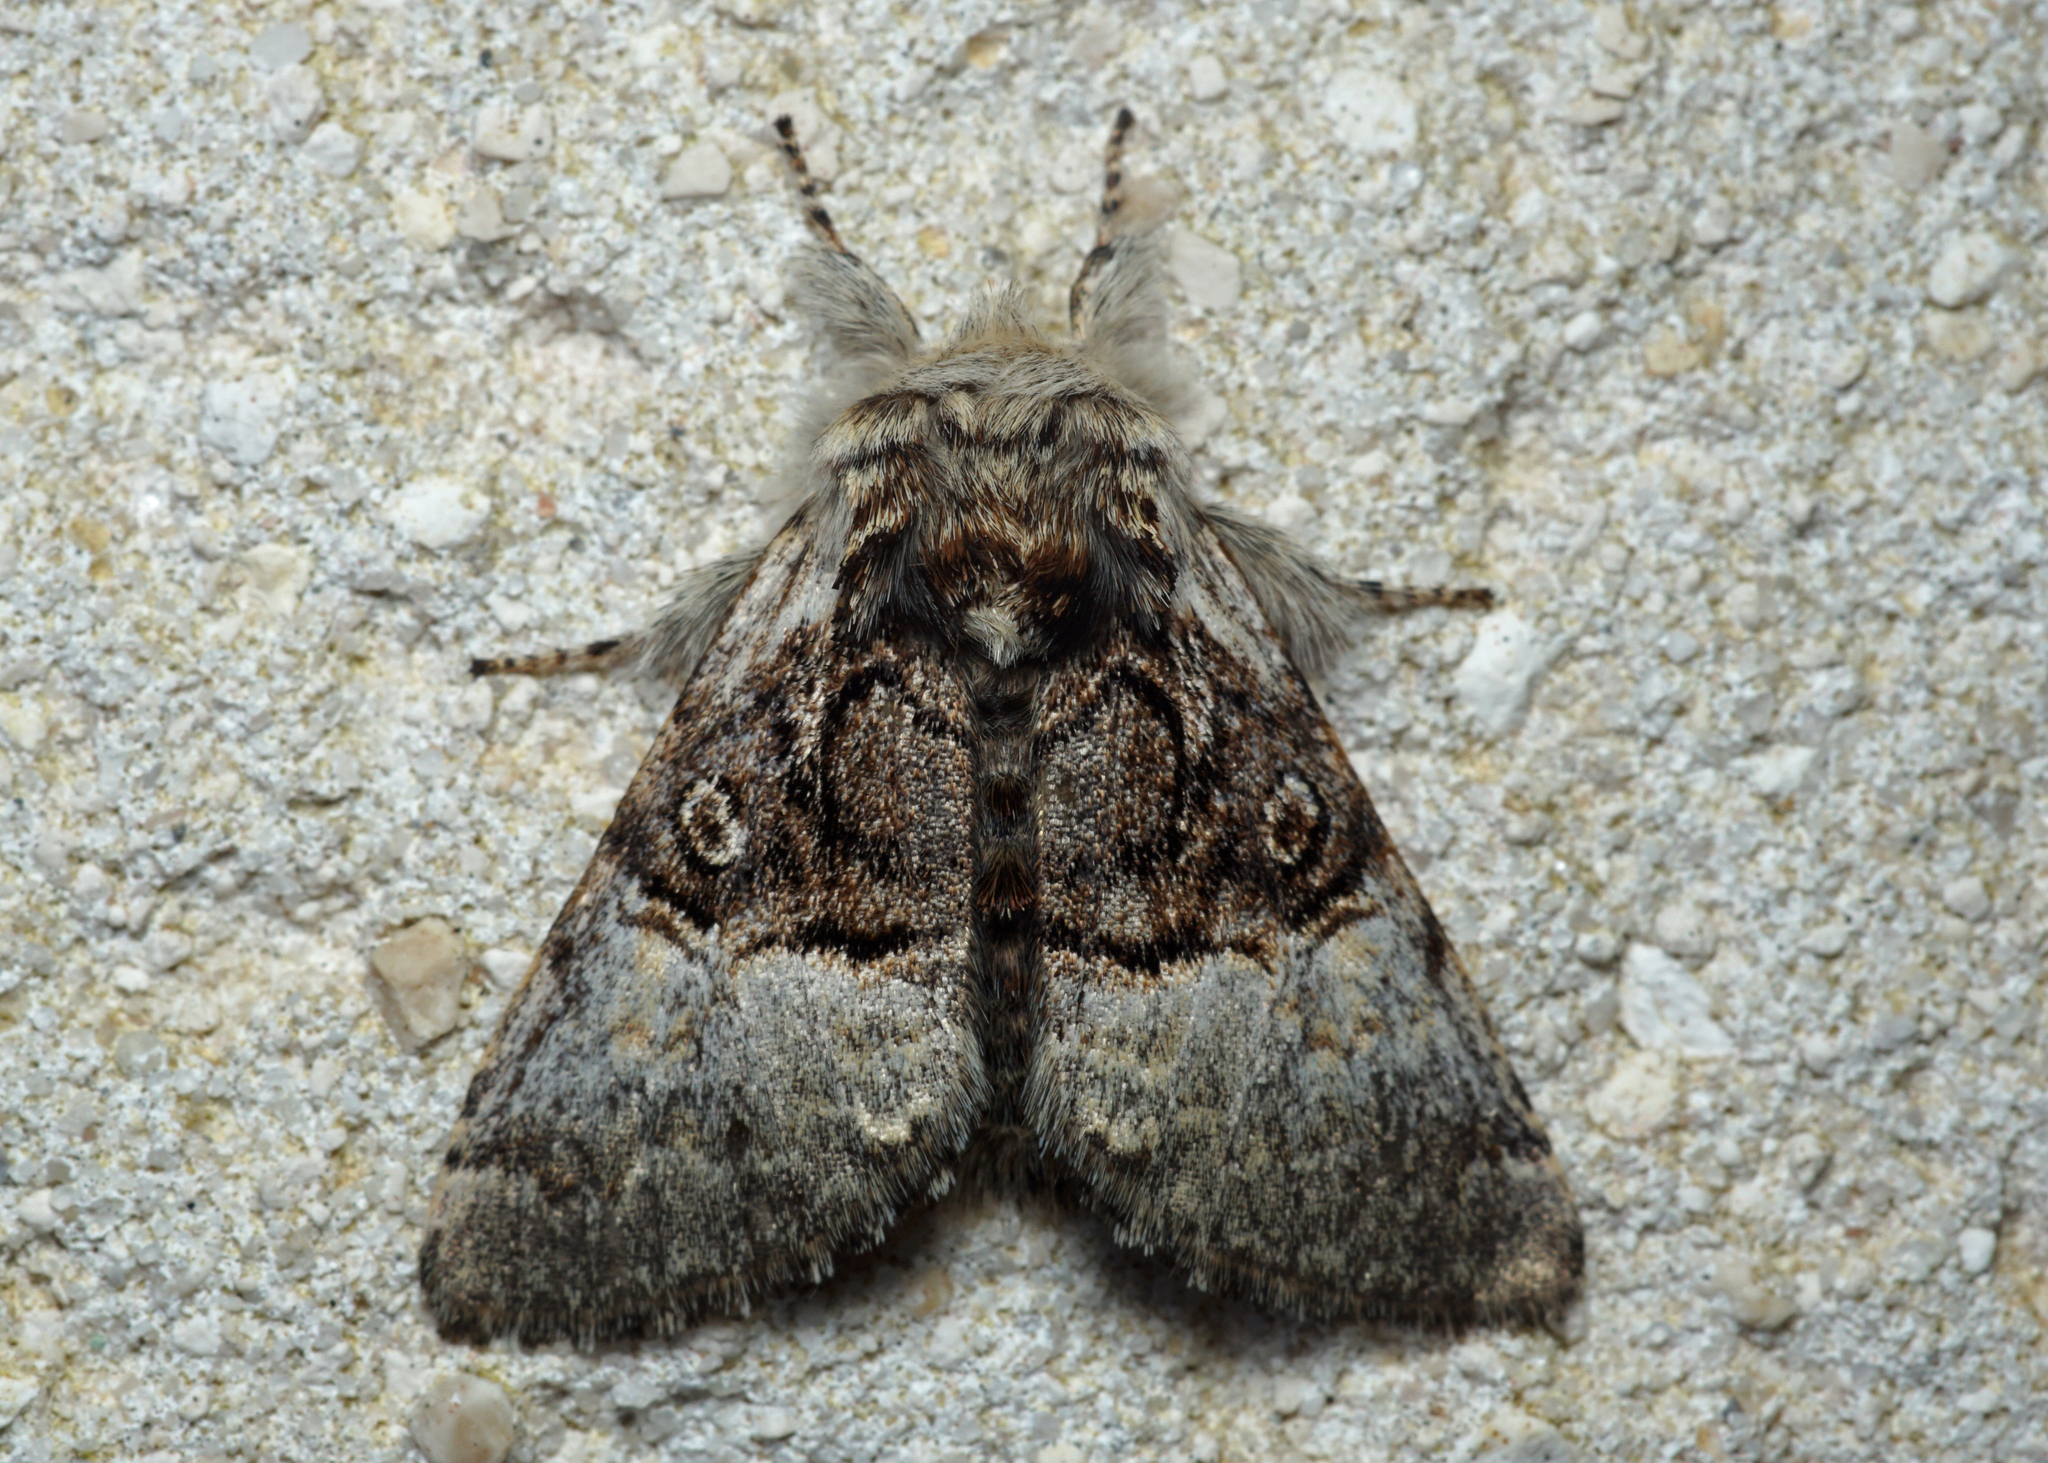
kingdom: Animalia
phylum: Arthropoda
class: Insecta
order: Lepidoptera
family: Noctuidae
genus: Colocasia
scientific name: Colocasia coryli
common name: Nut-tree tussock
